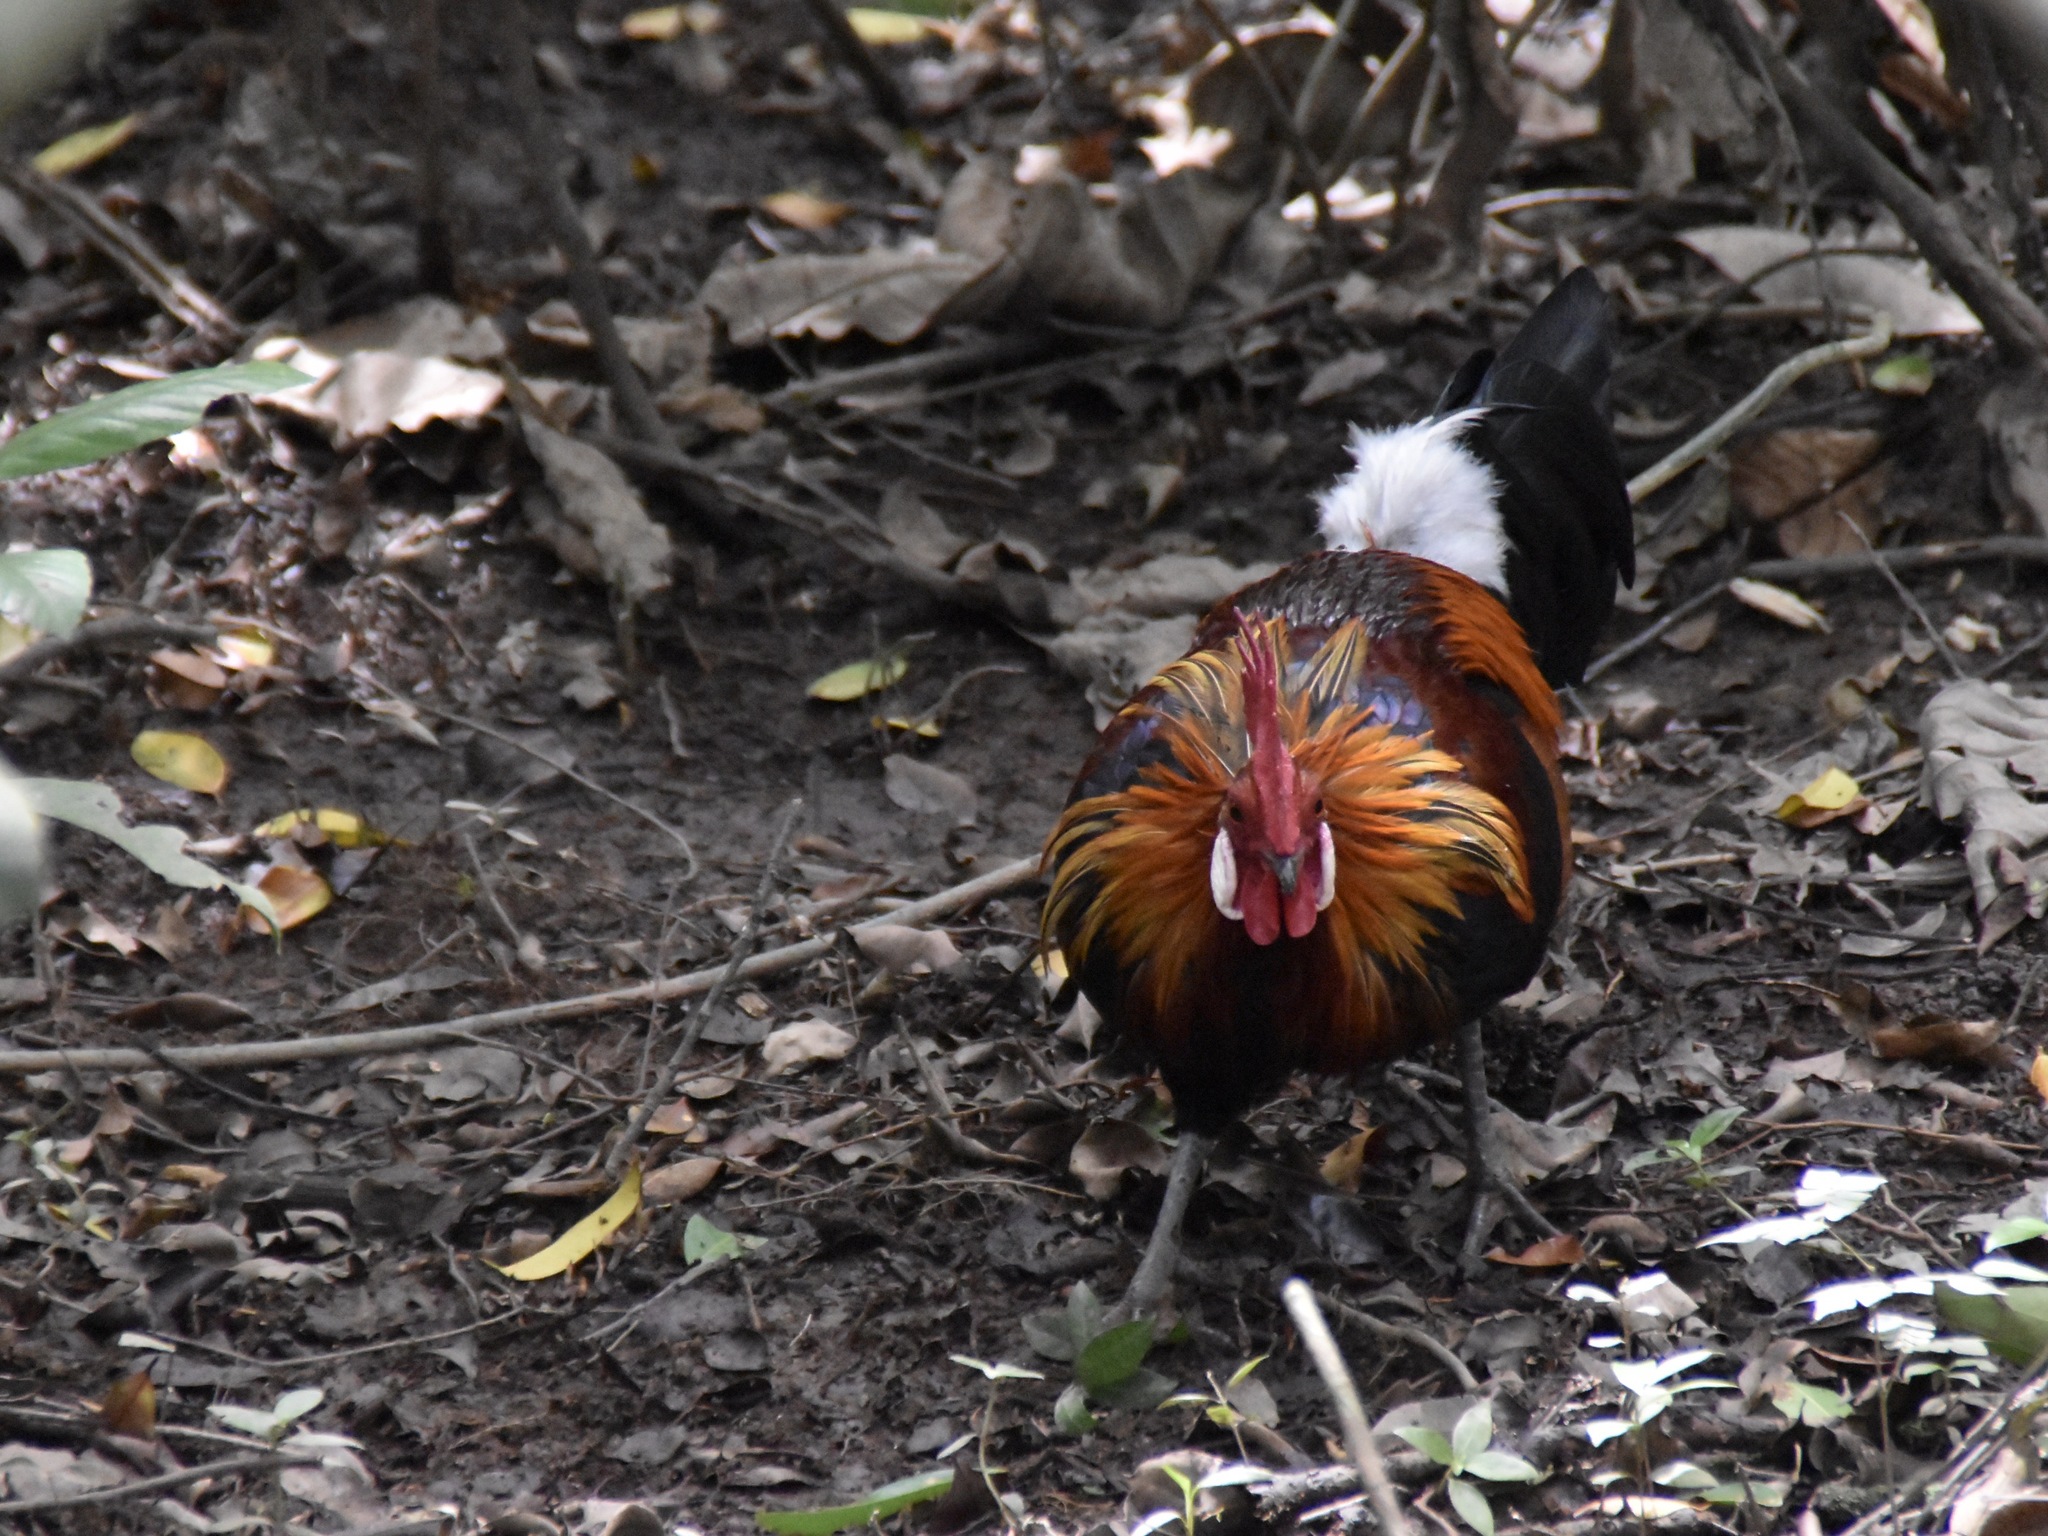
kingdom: Animalia
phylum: Chordata
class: Aves
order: Galliformes
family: Phasianidae
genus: Gallus
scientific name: Gallus gallus
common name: Red junglefowl
